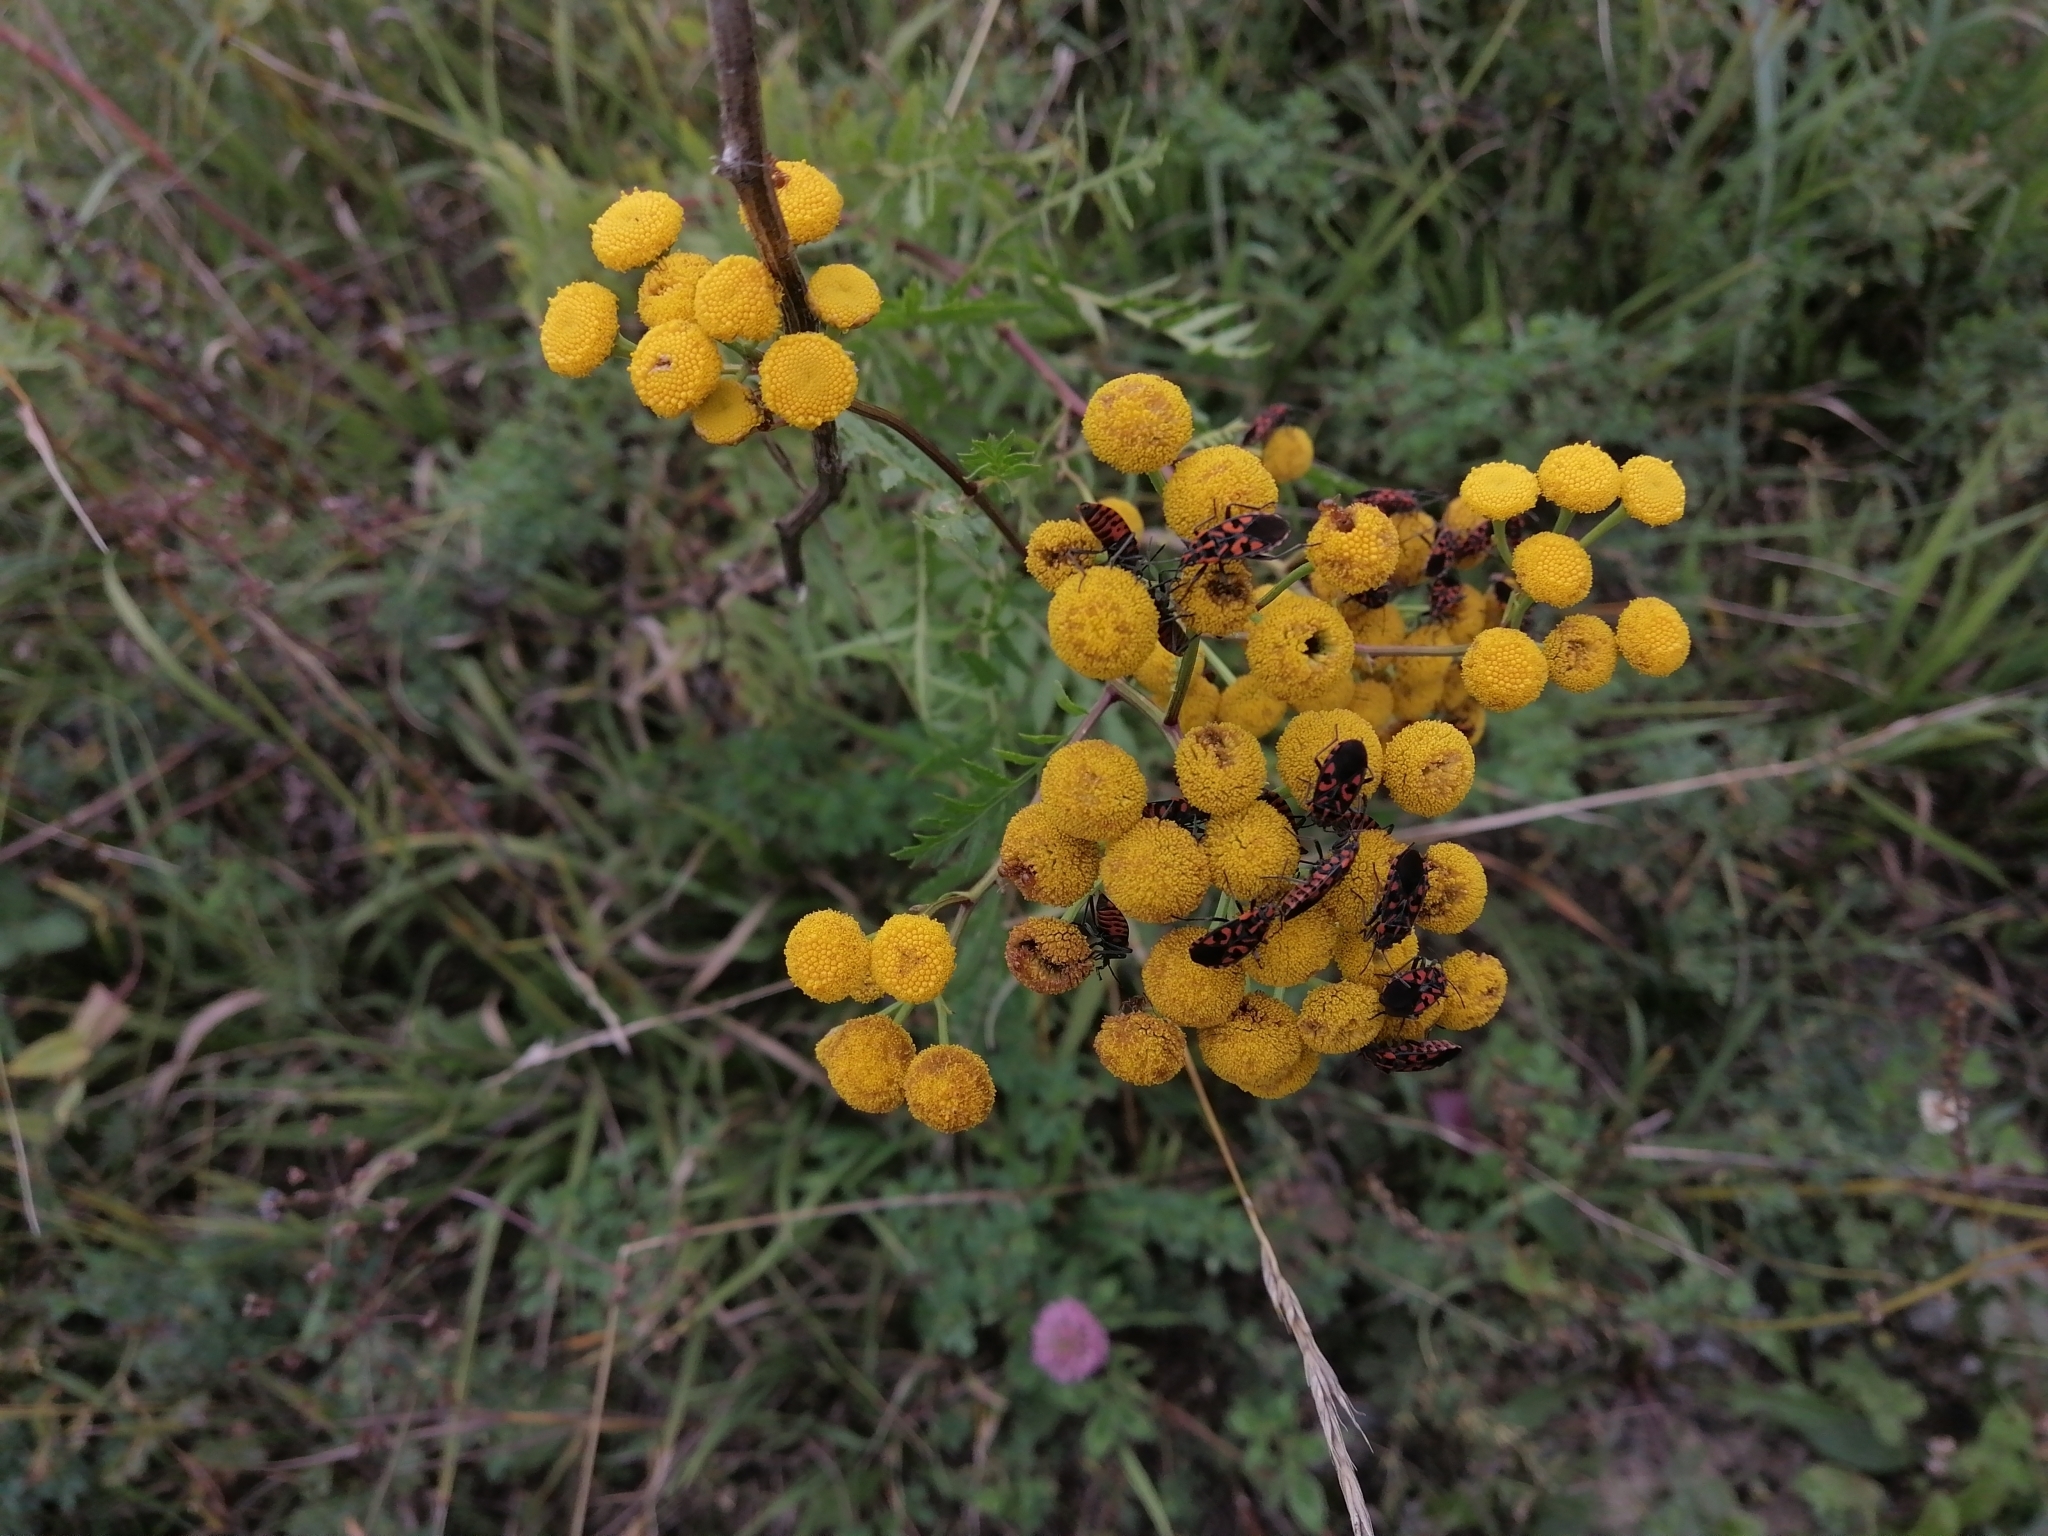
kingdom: Plantae
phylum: Tracheophyta
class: Magnoliopsida
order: Asterales
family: Asteraceae
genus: Tanacetum
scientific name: Tanacetum vulgare
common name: Common tansy
